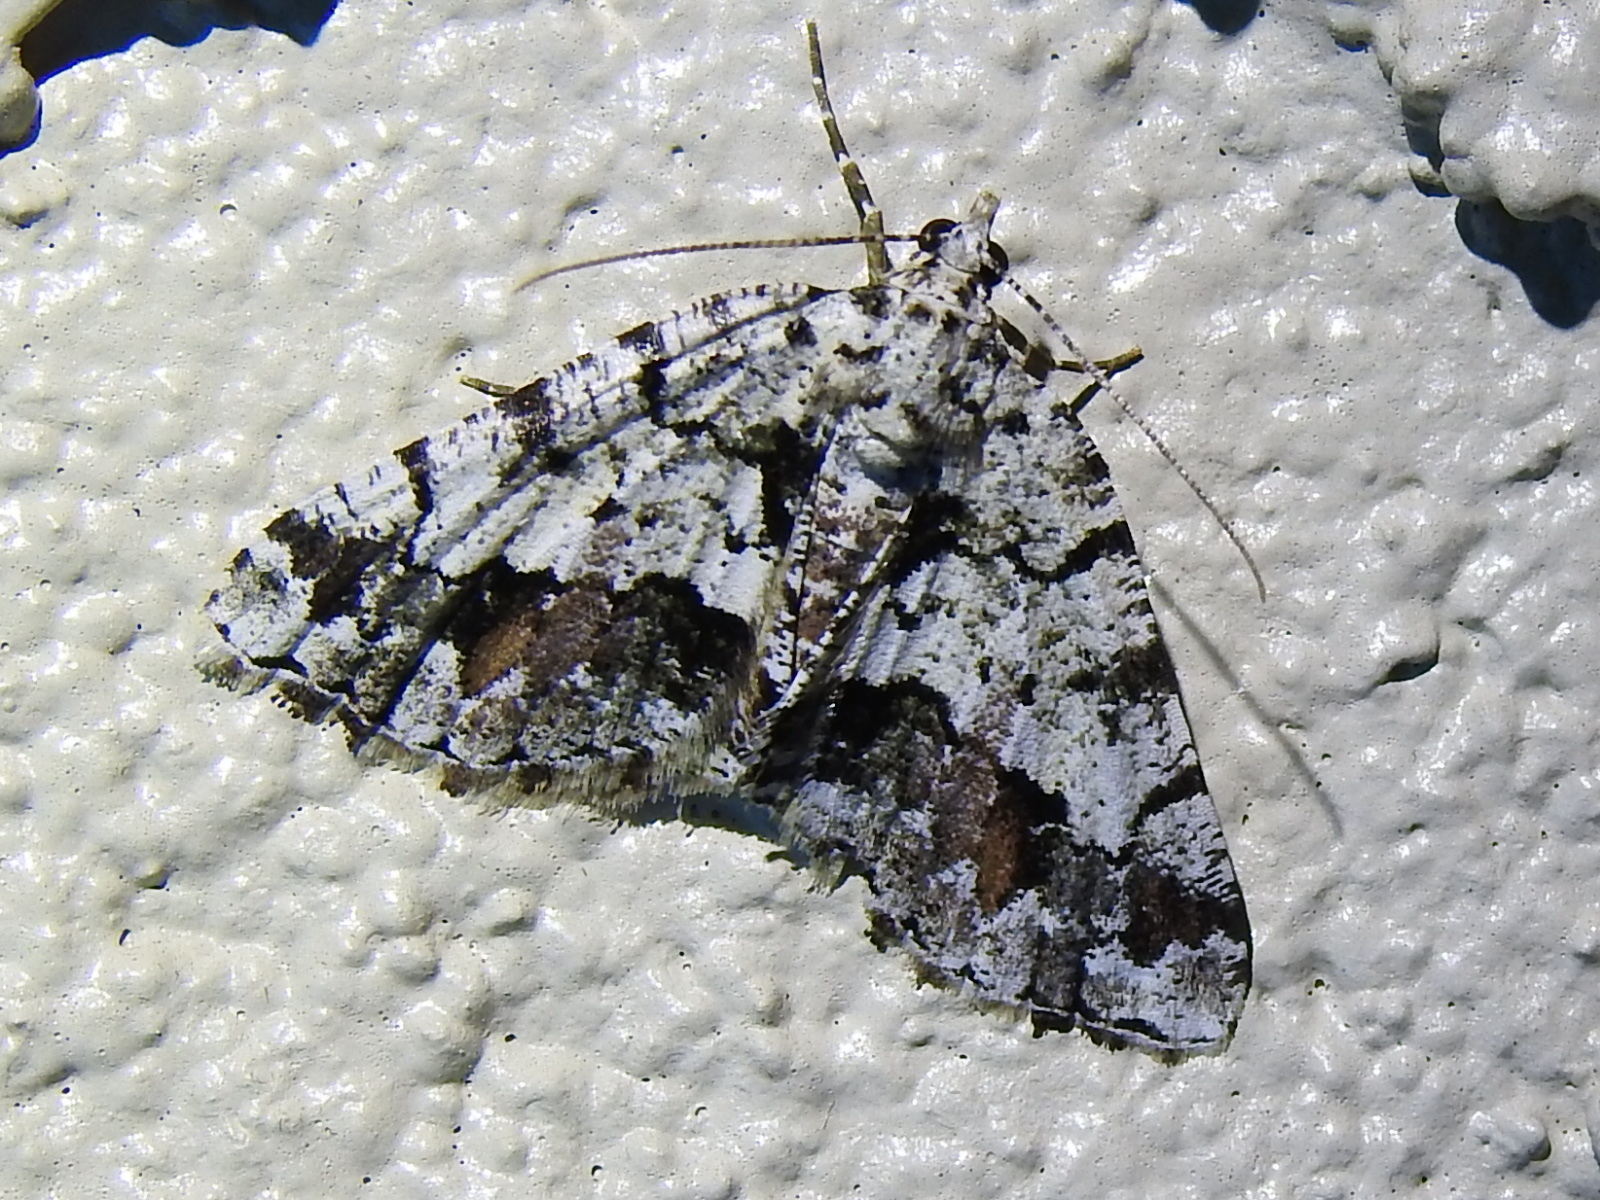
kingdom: Animalia
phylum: Arthropoda
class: Insecta
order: Lepidoptera
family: Geometridae
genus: Macaria
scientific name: Macaria graphidaria
